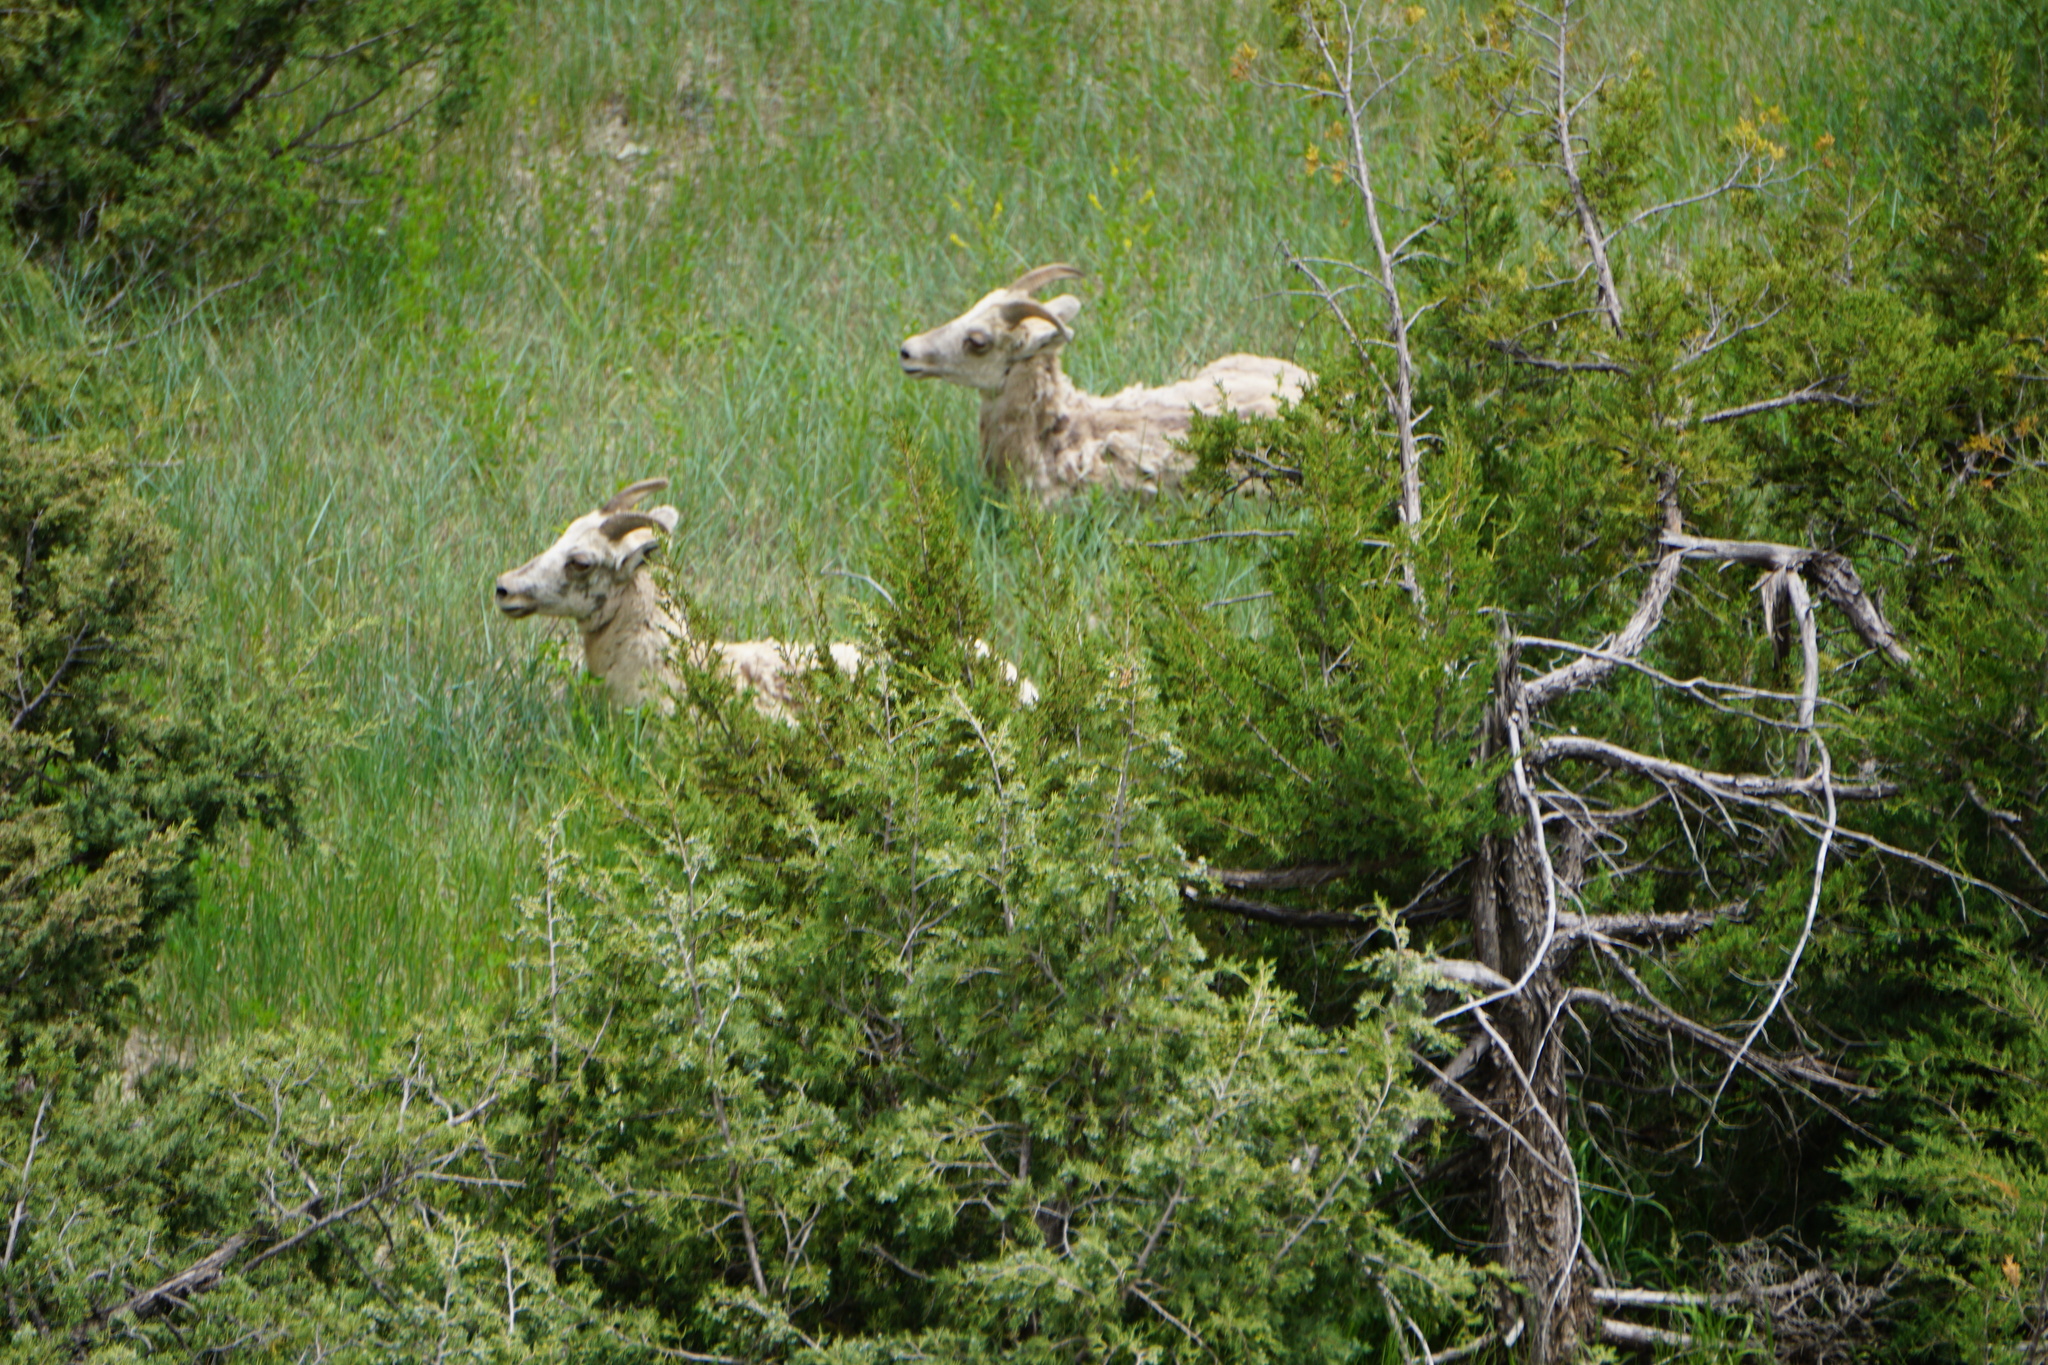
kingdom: Animalia
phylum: Chordata
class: Mammalia
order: Artiodactyla
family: Bovidae
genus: Ovis
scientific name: Ovis canadensis
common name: Bighorn sheep
